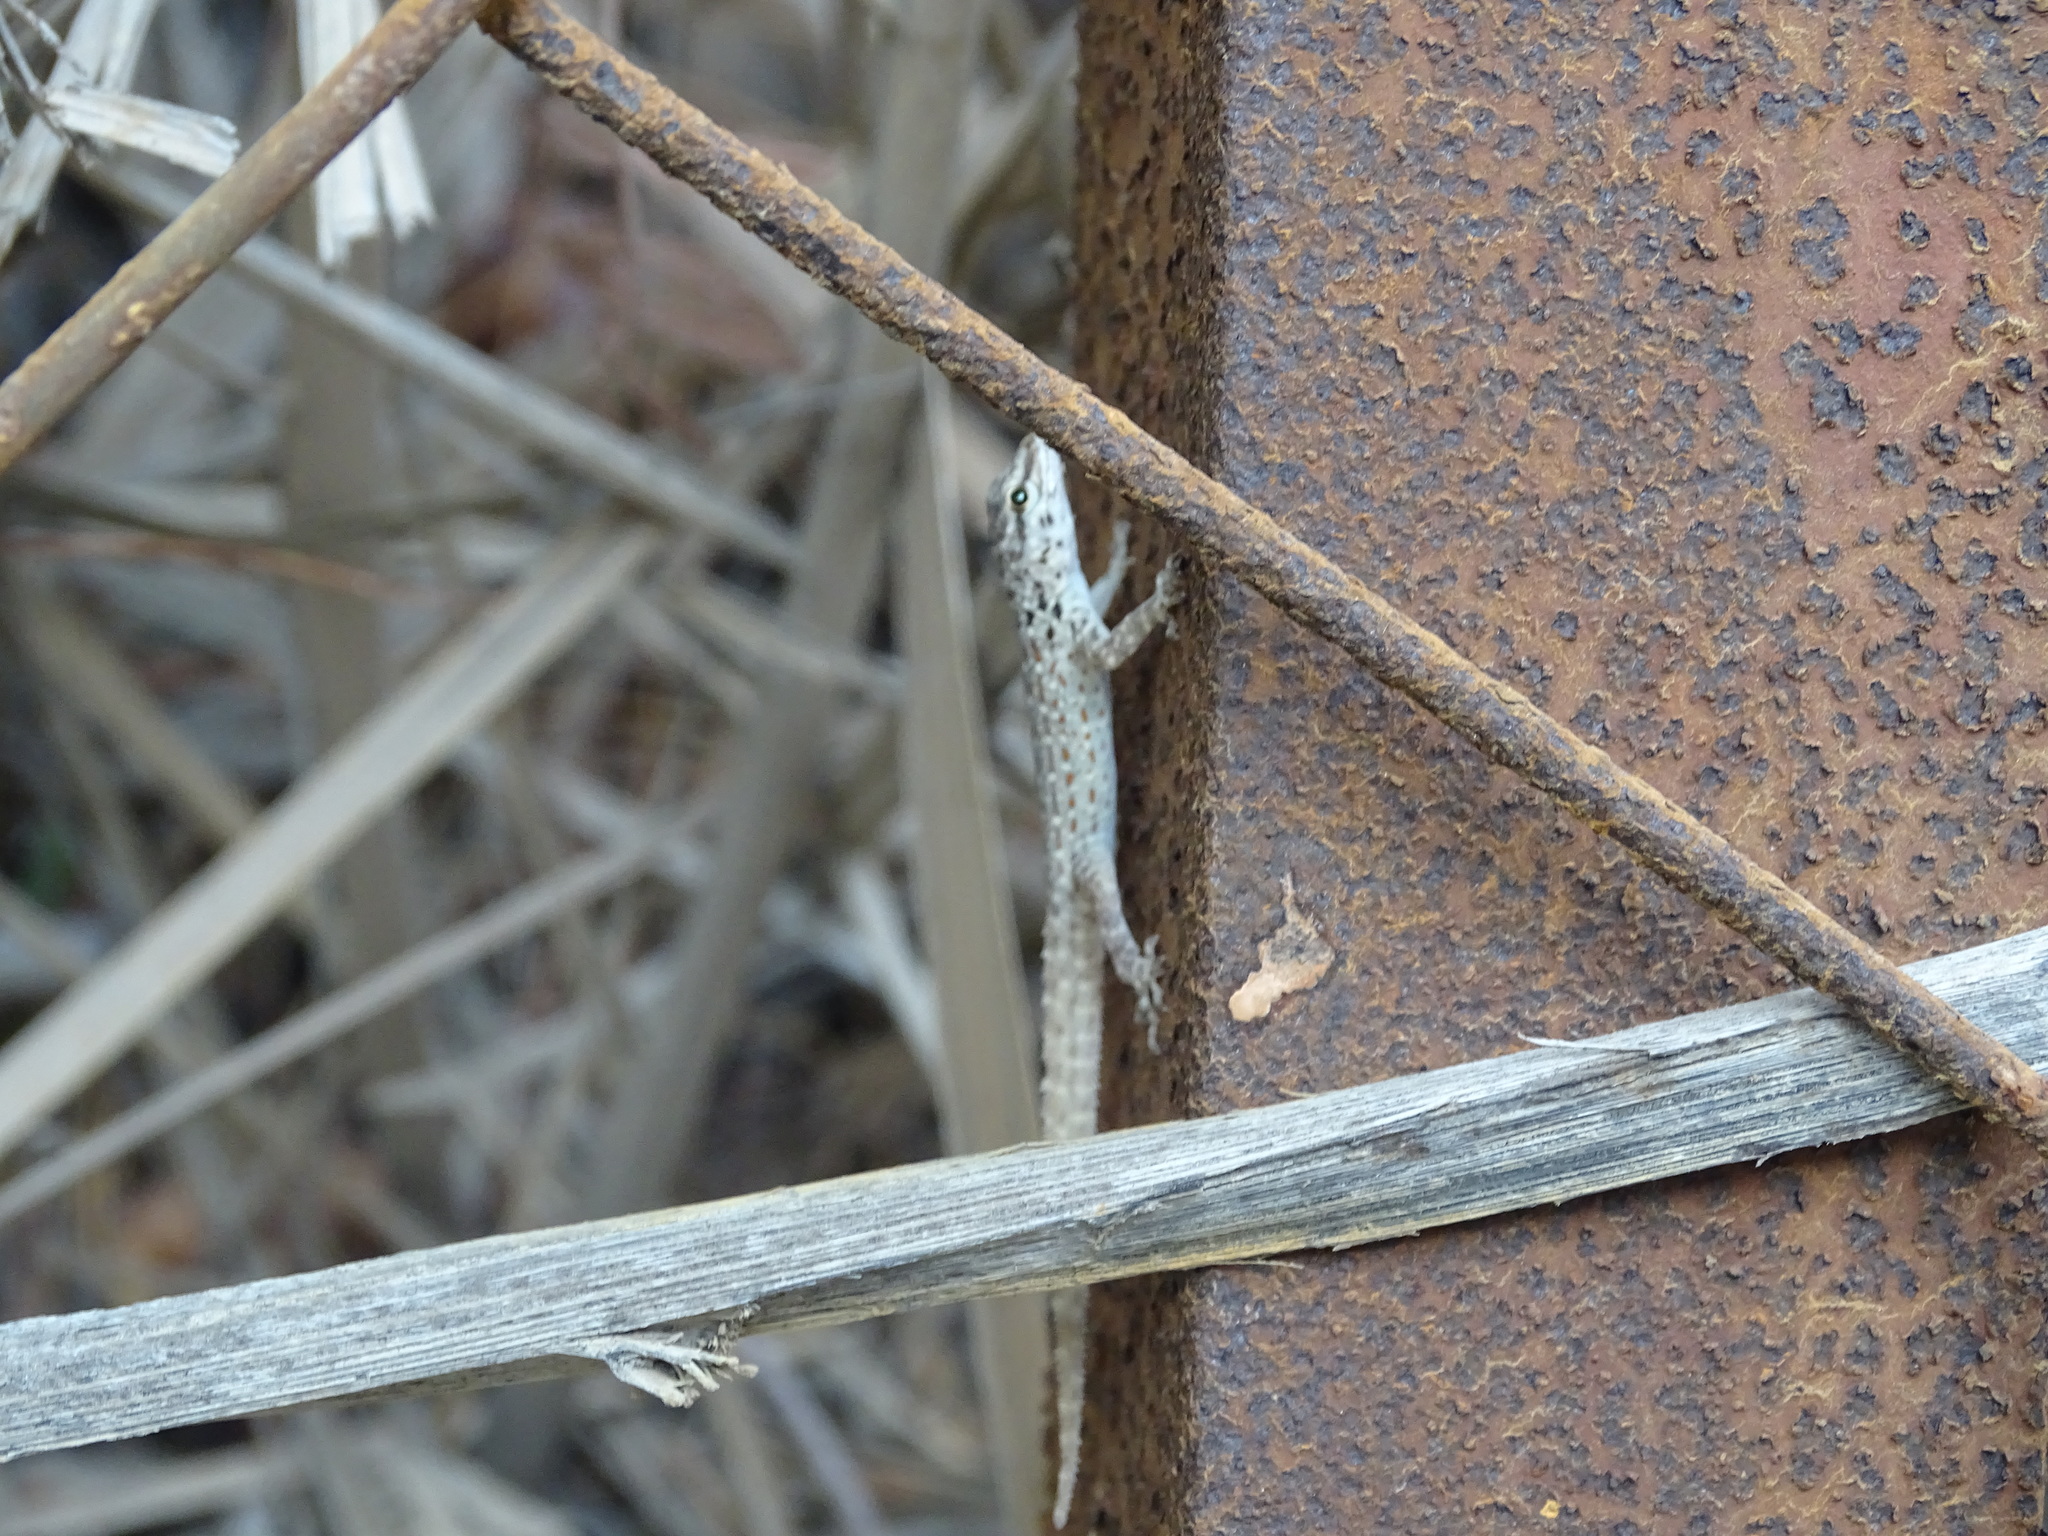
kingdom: Animalia
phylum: Chordata
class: Squamata
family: Sphaerodactylidae
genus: Pristurus
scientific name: Pristurus rupestris
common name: Blanford’s semaphore gecko
